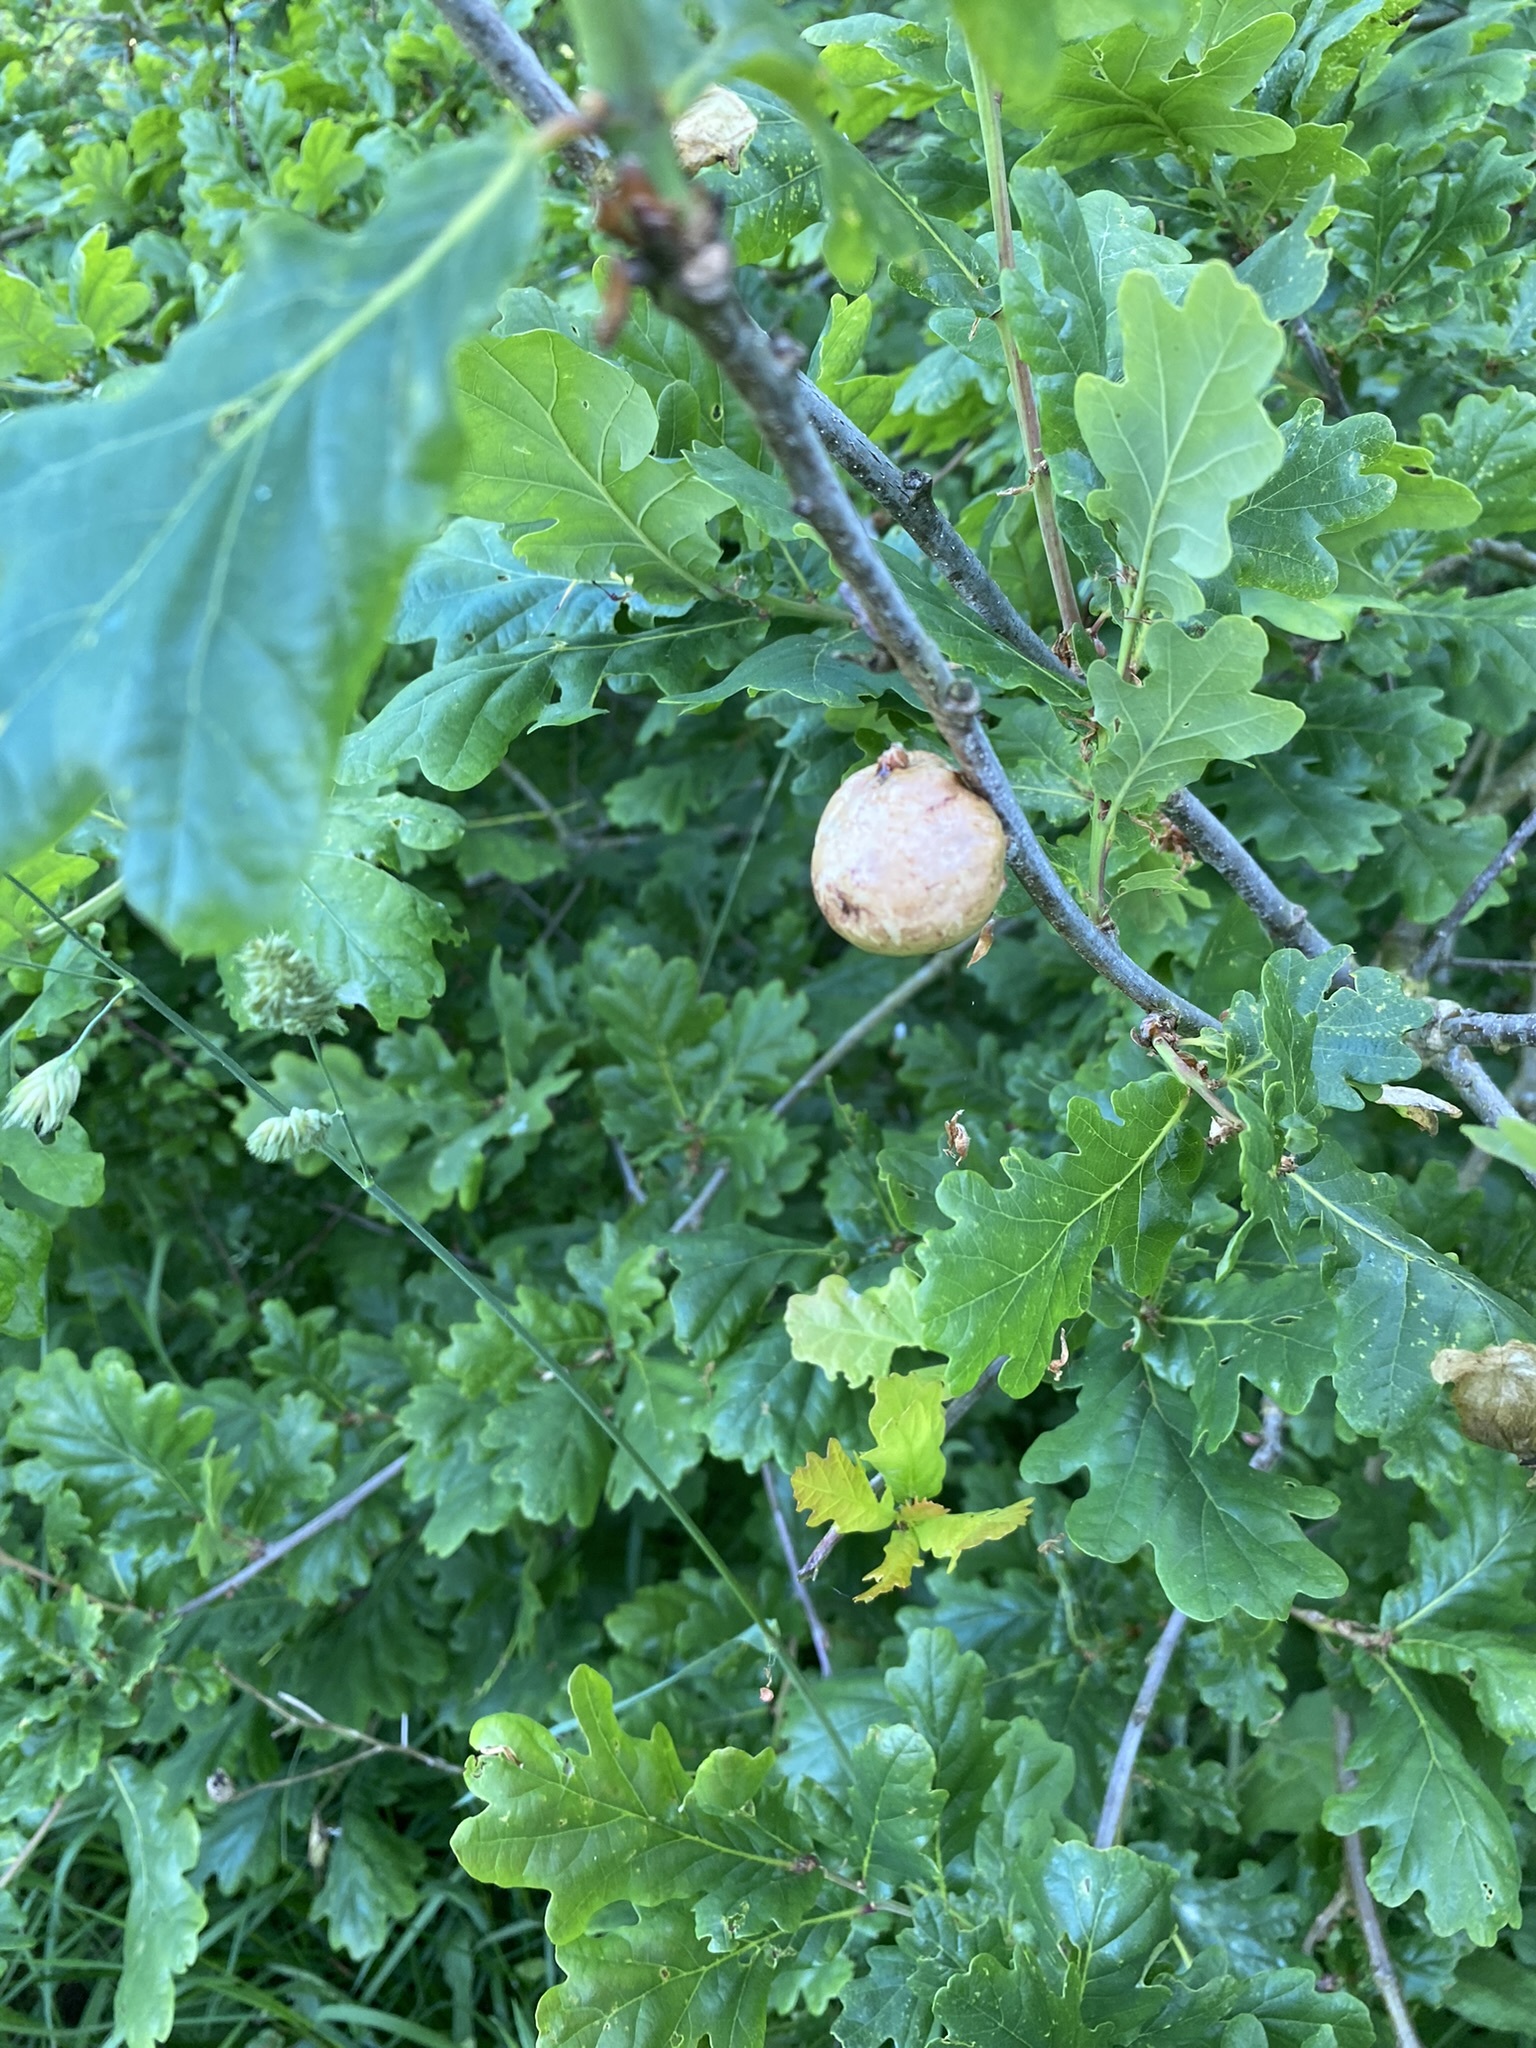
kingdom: Animalia
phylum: Arthropoda
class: Insecta
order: Hymenoptera
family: Cynipidae
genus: Biorhiza
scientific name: Biorhiza pallida
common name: Oak apple
